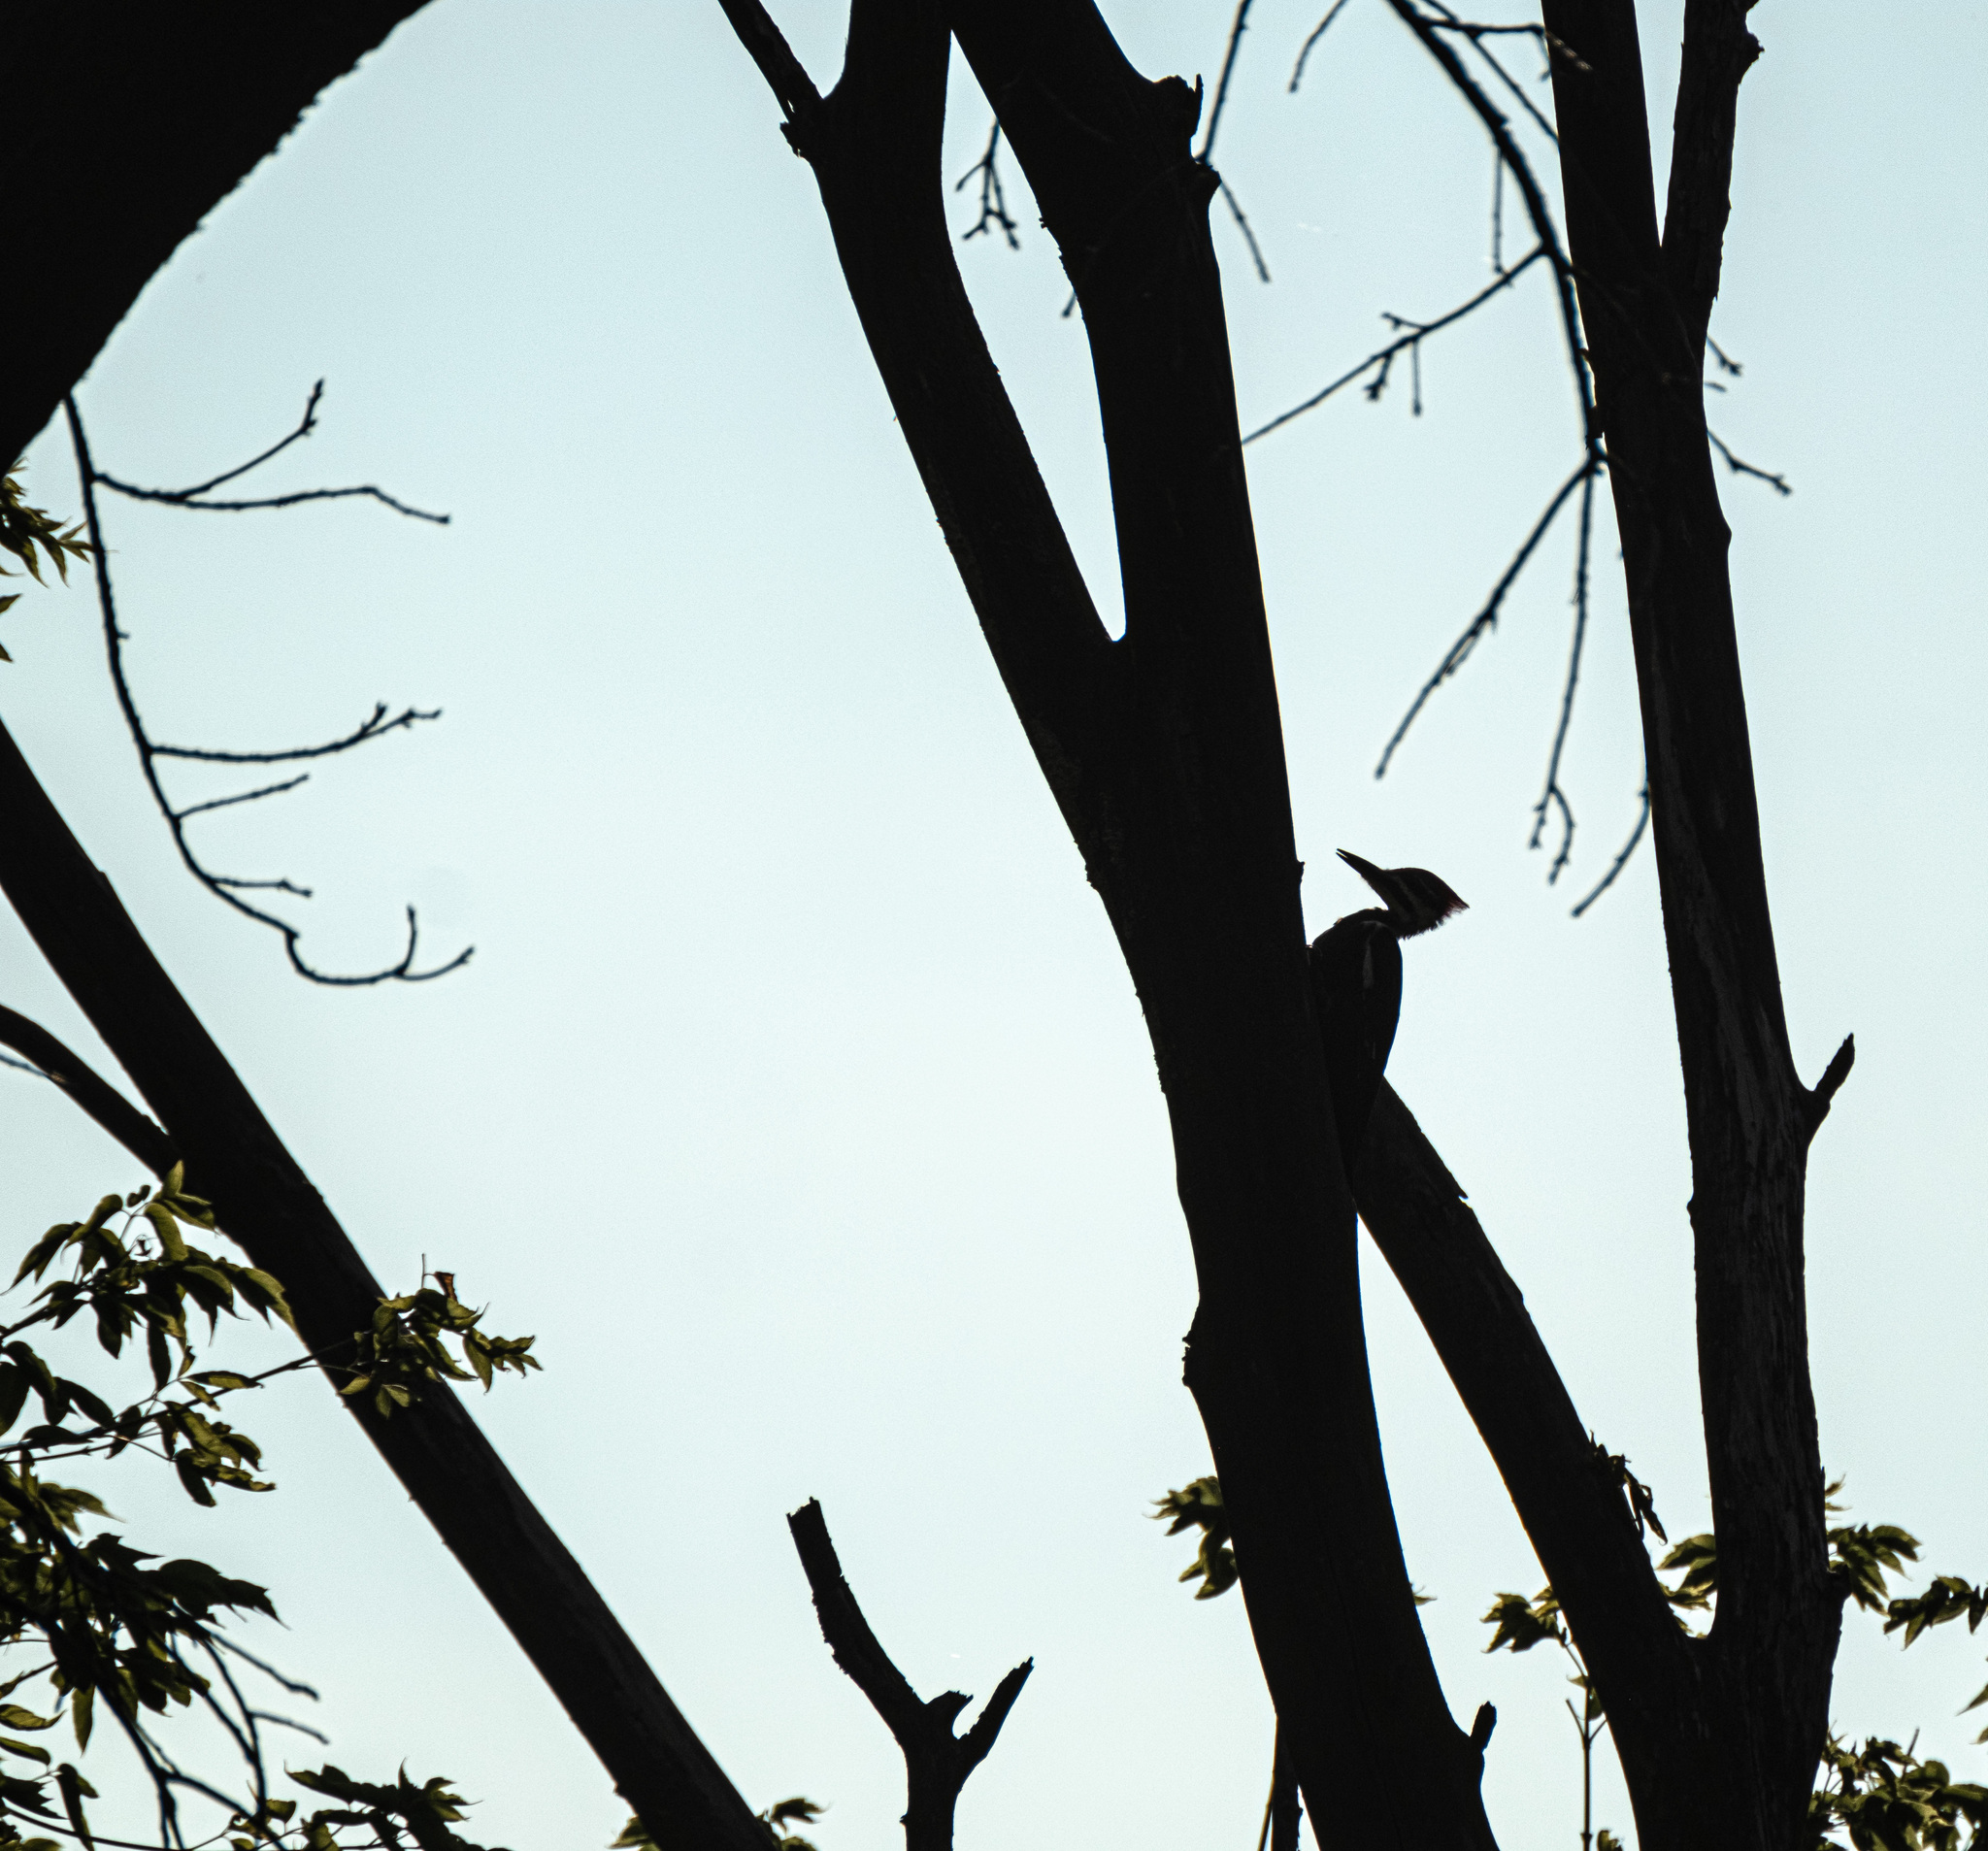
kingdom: Animalia
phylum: Chordata
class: Aves
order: Piciformes
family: Picidae
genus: Dryocopus
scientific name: Dryocopus pileatus
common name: Pileated woodpecker
